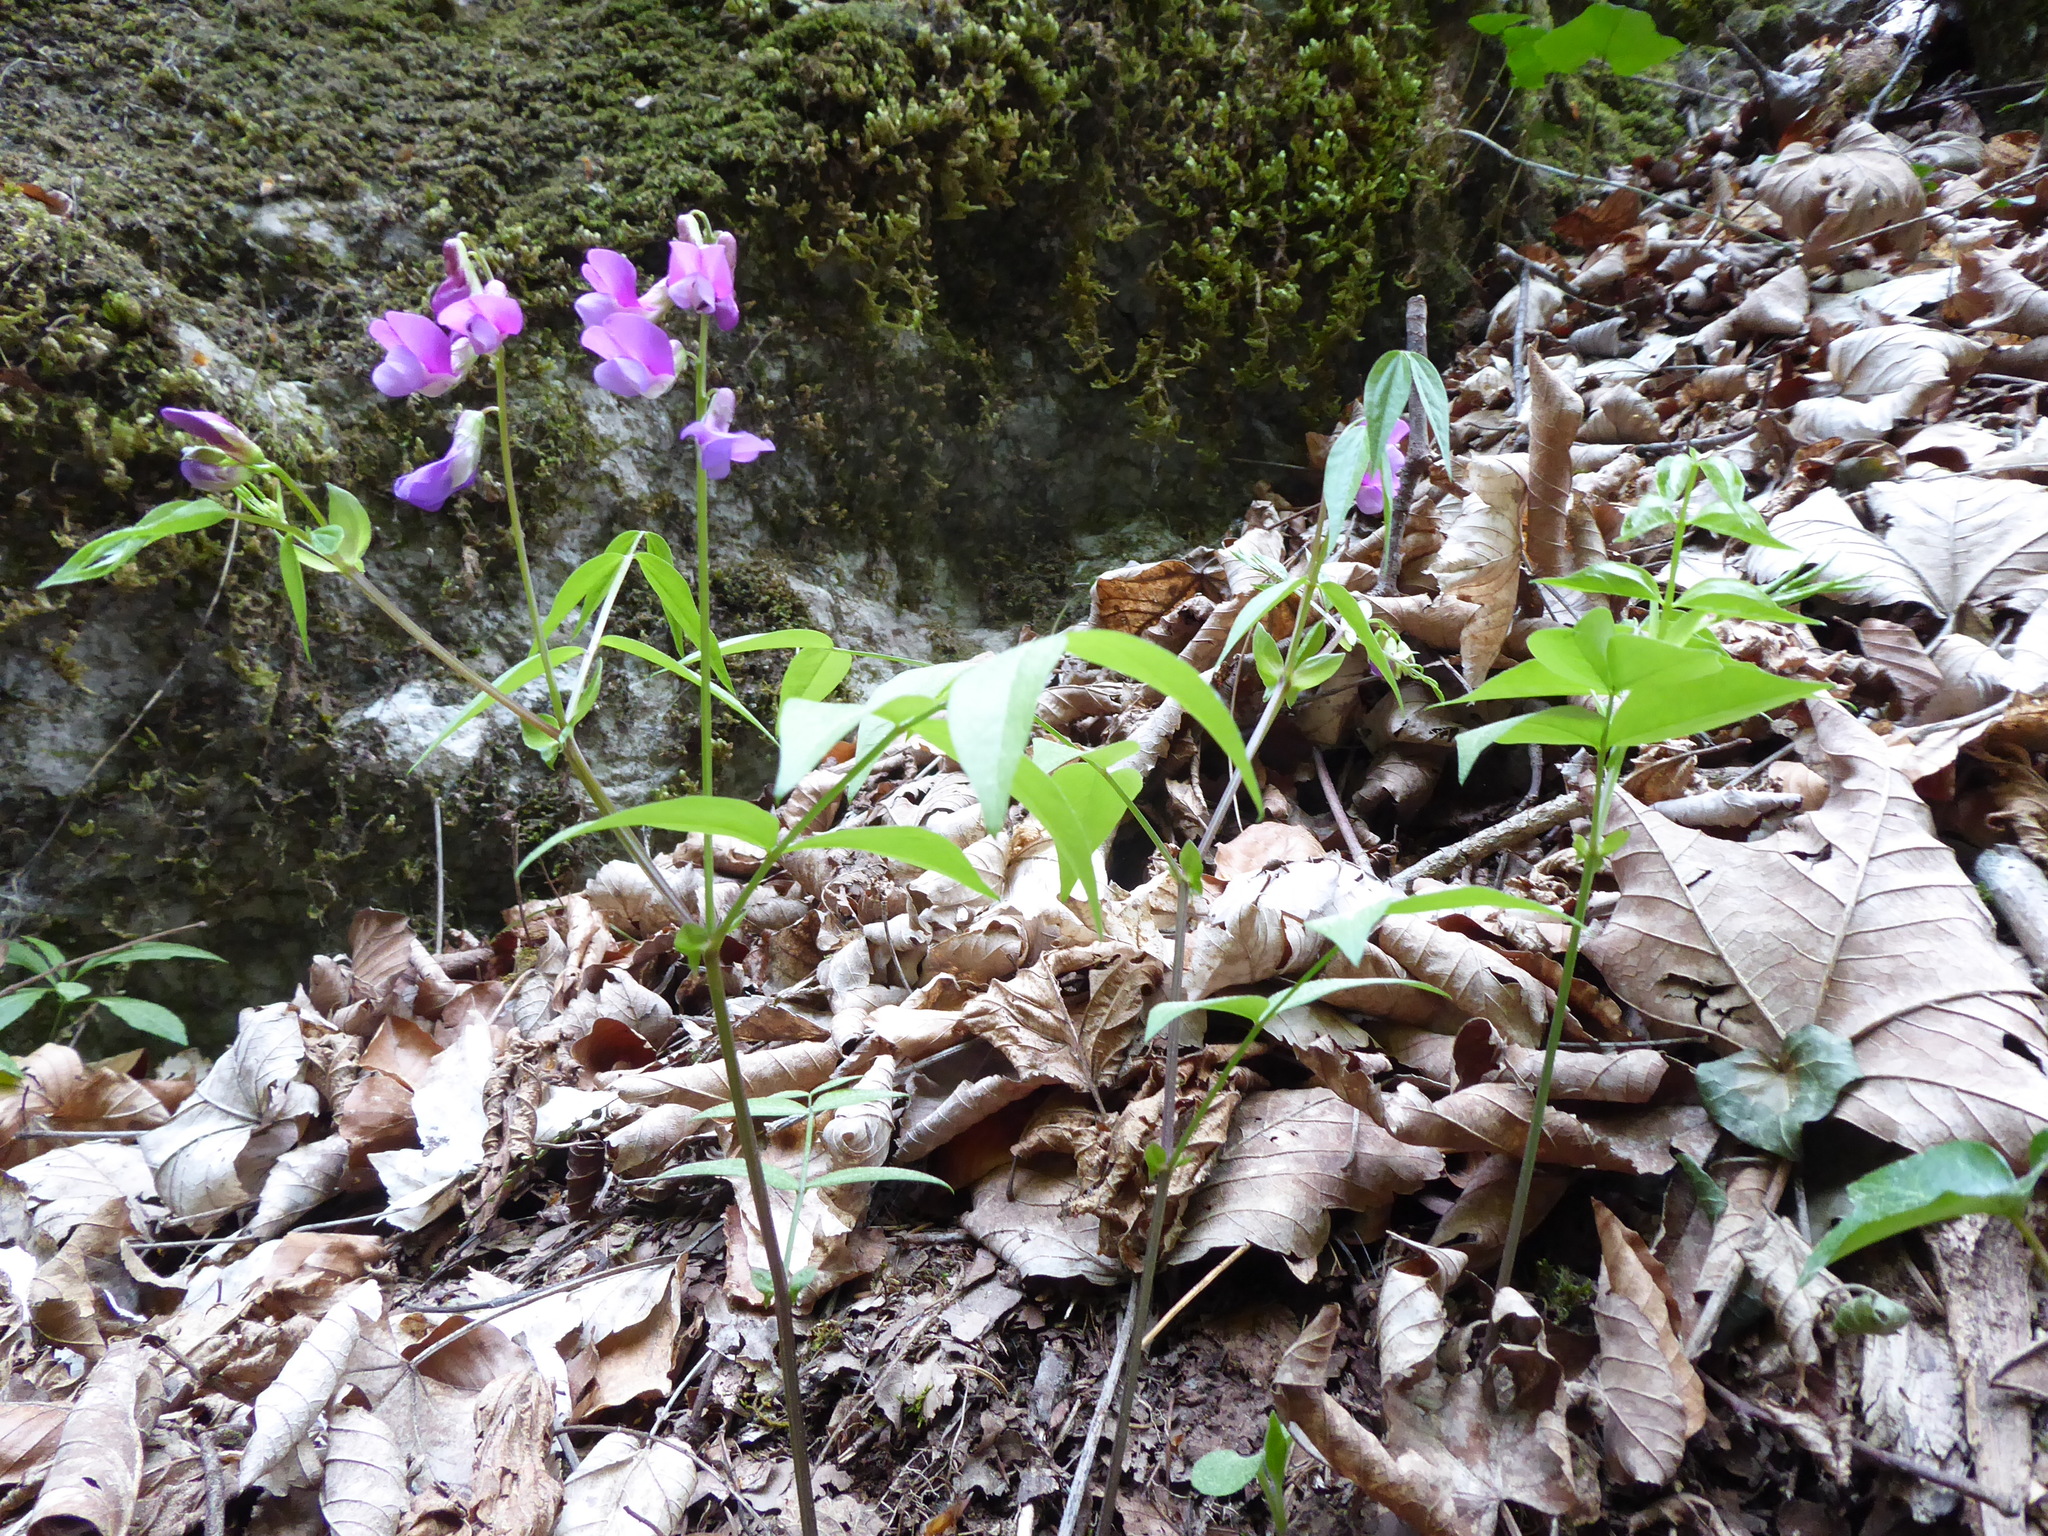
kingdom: Plantae
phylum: Tracheophyta
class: Magnoliopsida
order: Fabales
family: Fabaceae
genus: Lathyrus
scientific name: Lathyrus vernus
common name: Spring pea
